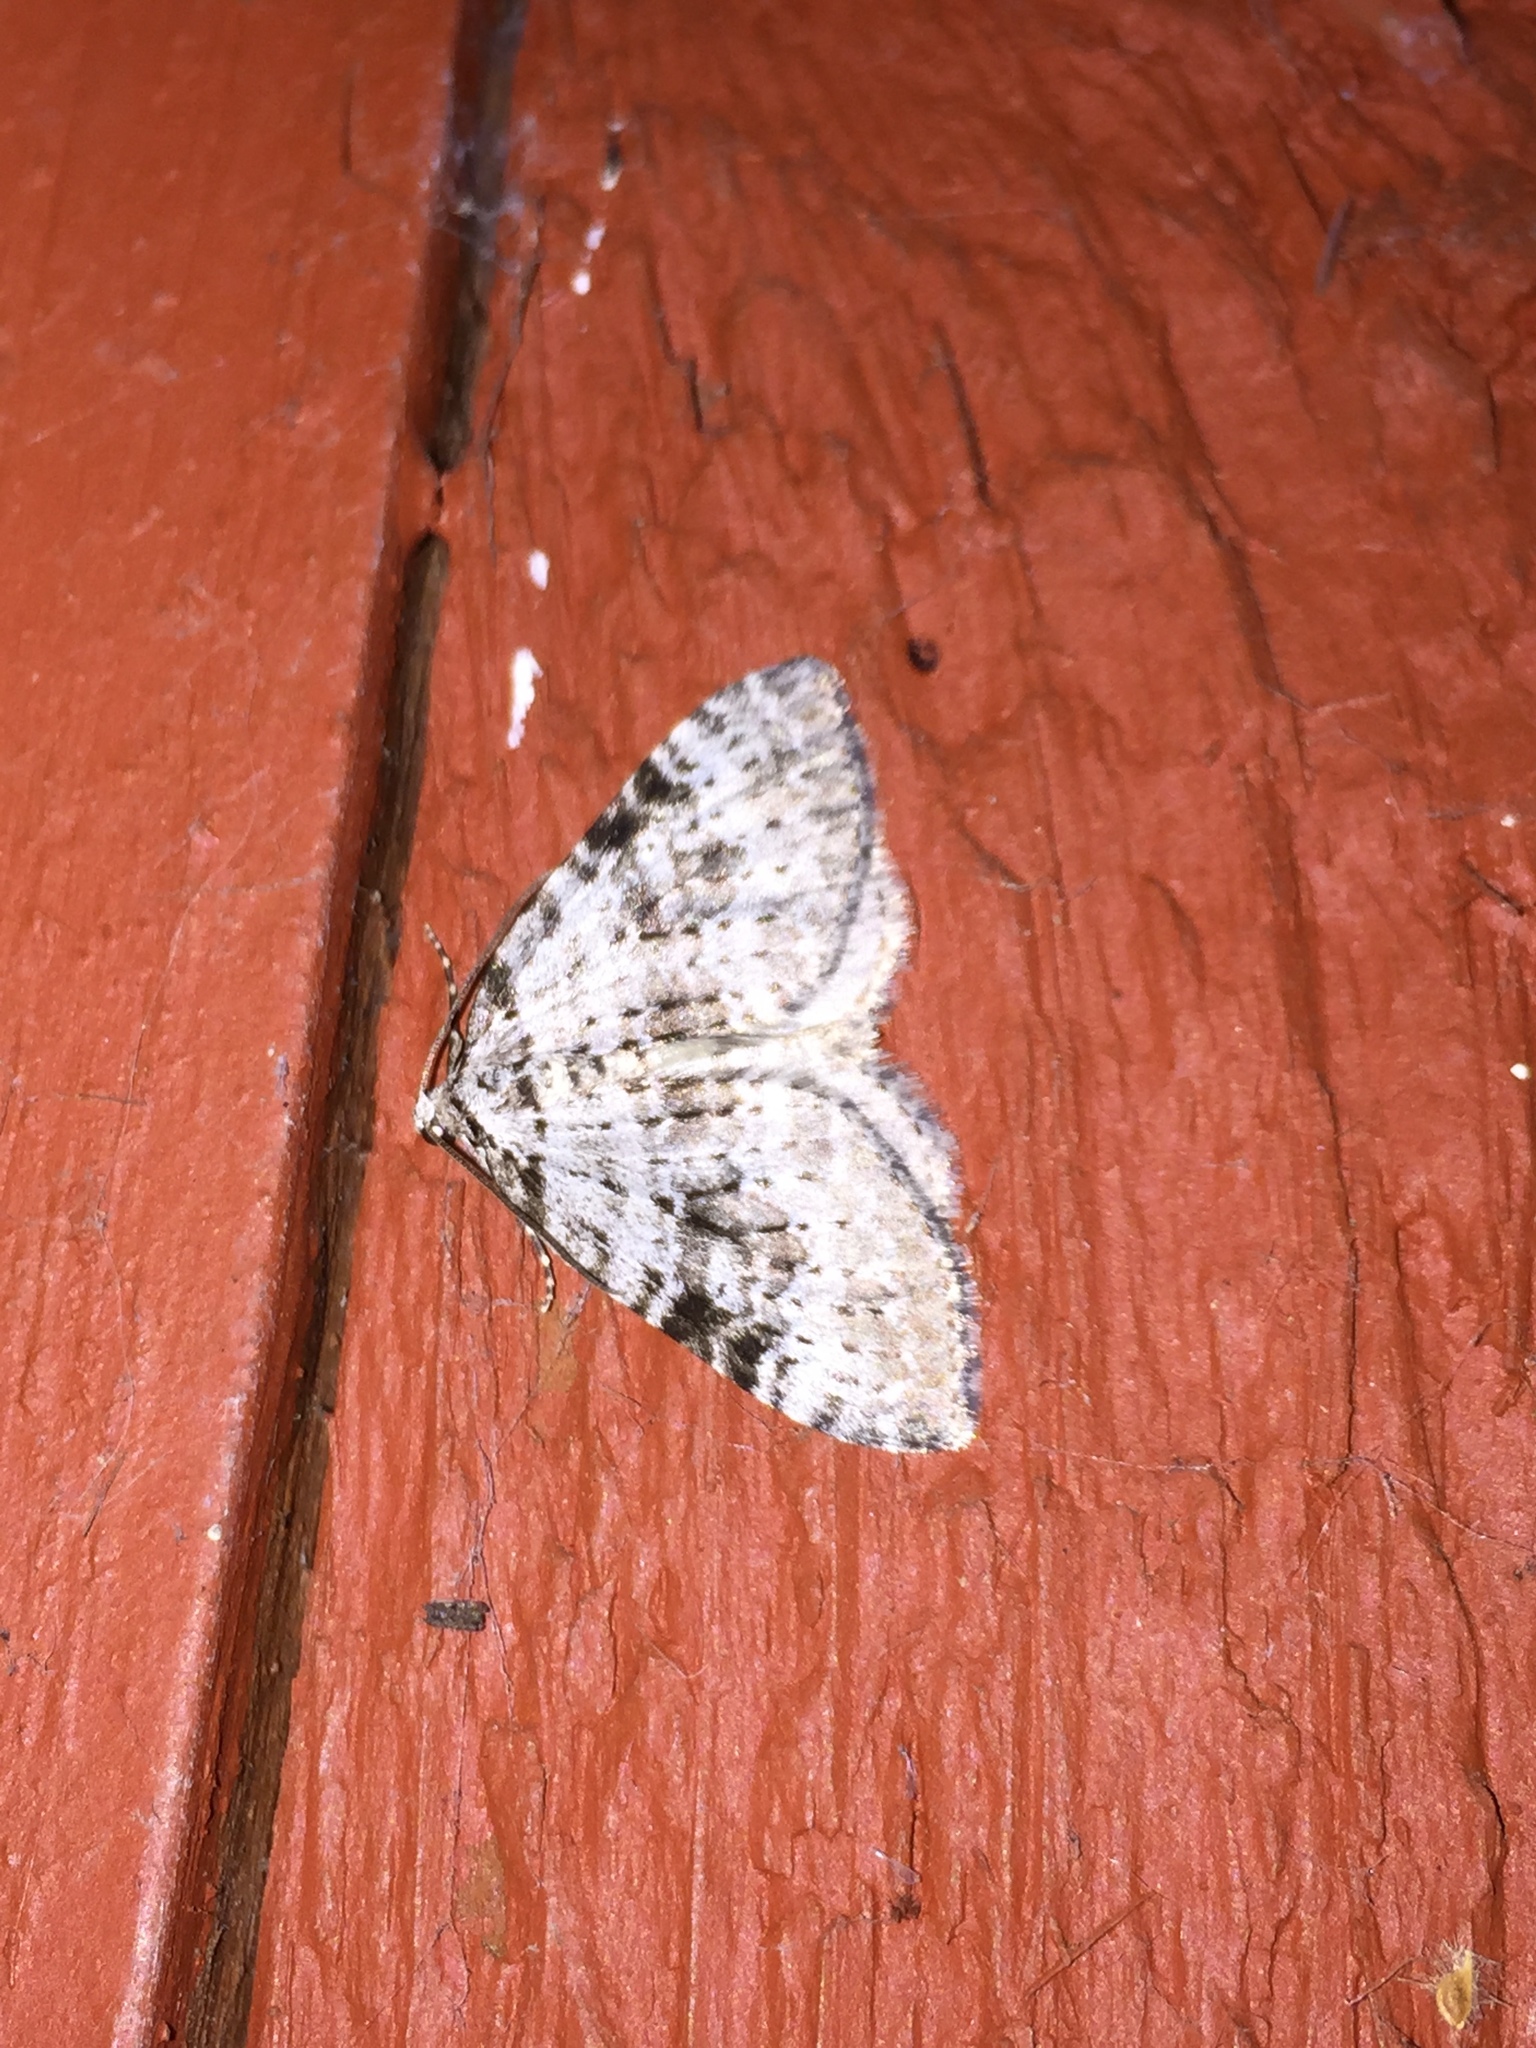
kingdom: Animalia
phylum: Arthropoda
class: Insecta
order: Lepidoptera
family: Geometridae
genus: Perizoma
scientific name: Perizoma curvilinea
